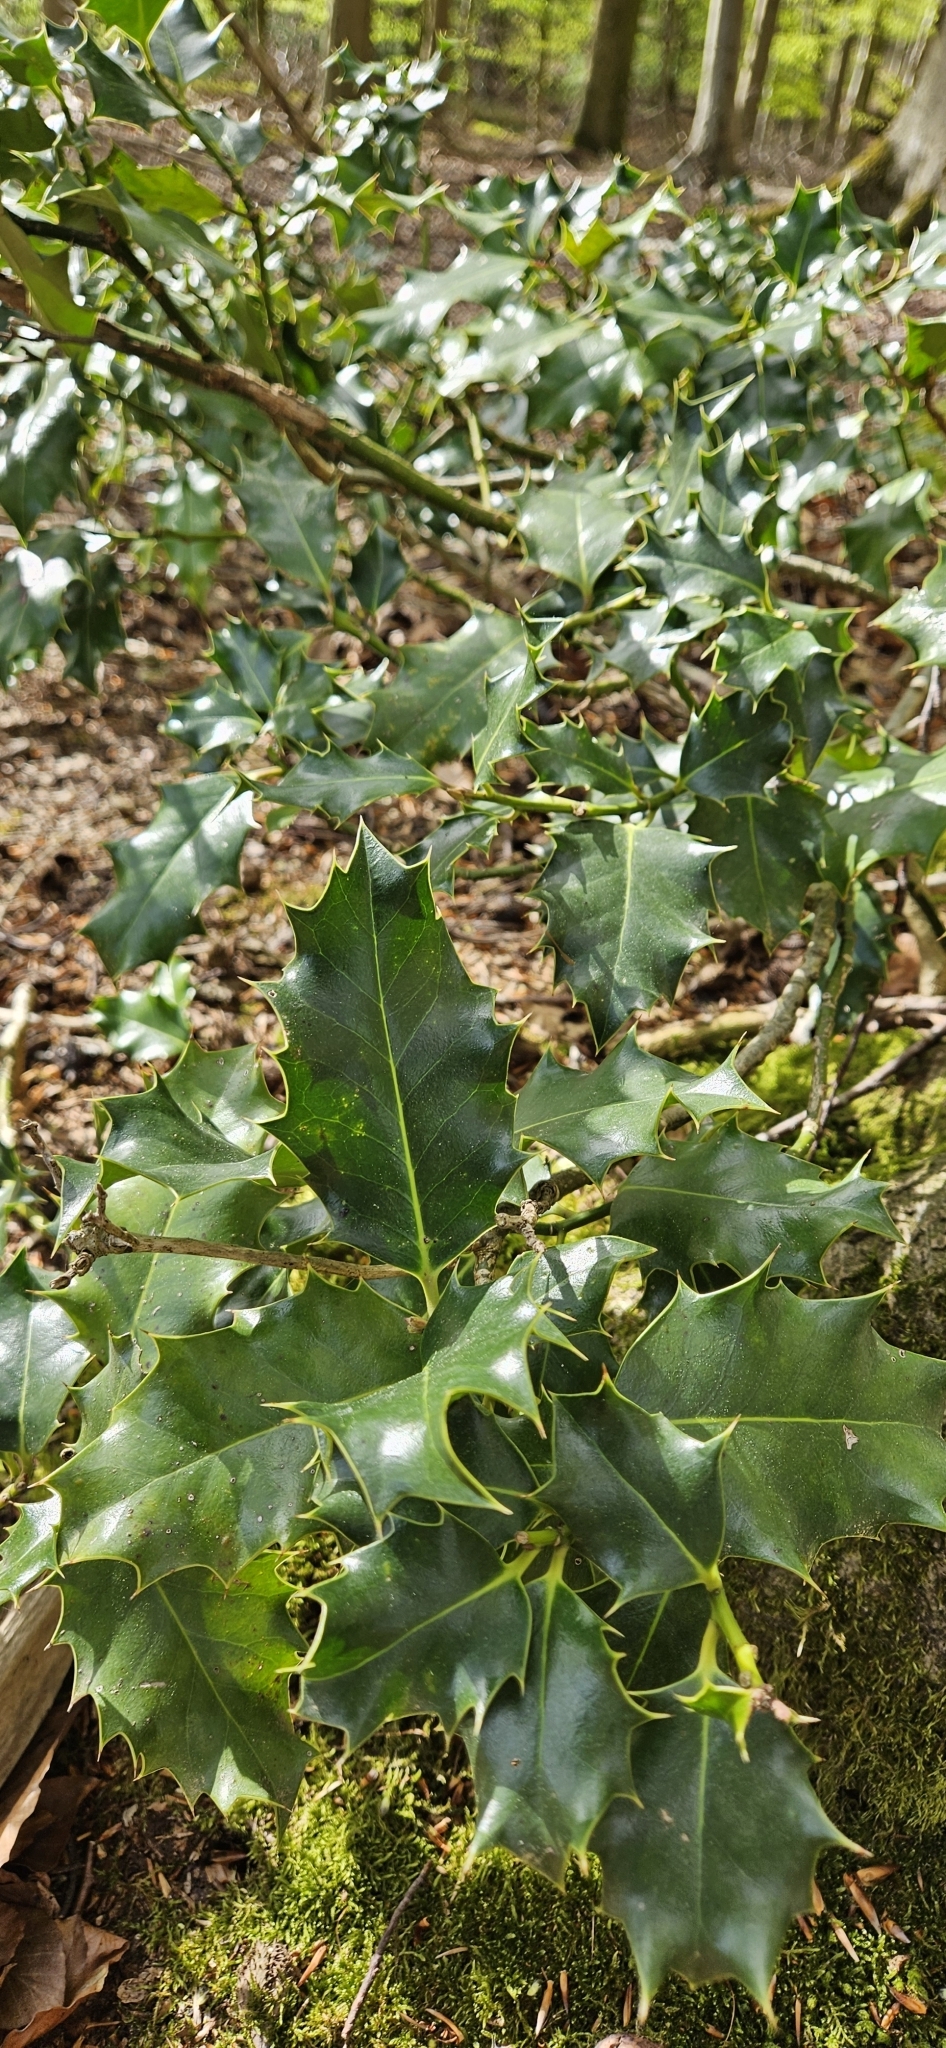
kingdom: Plantae
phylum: Tracheophyta
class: Magnoliopsida
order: Aquifoliales
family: Aquifoliaceae
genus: Ilex
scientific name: Ilex aquifolium
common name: English holly
